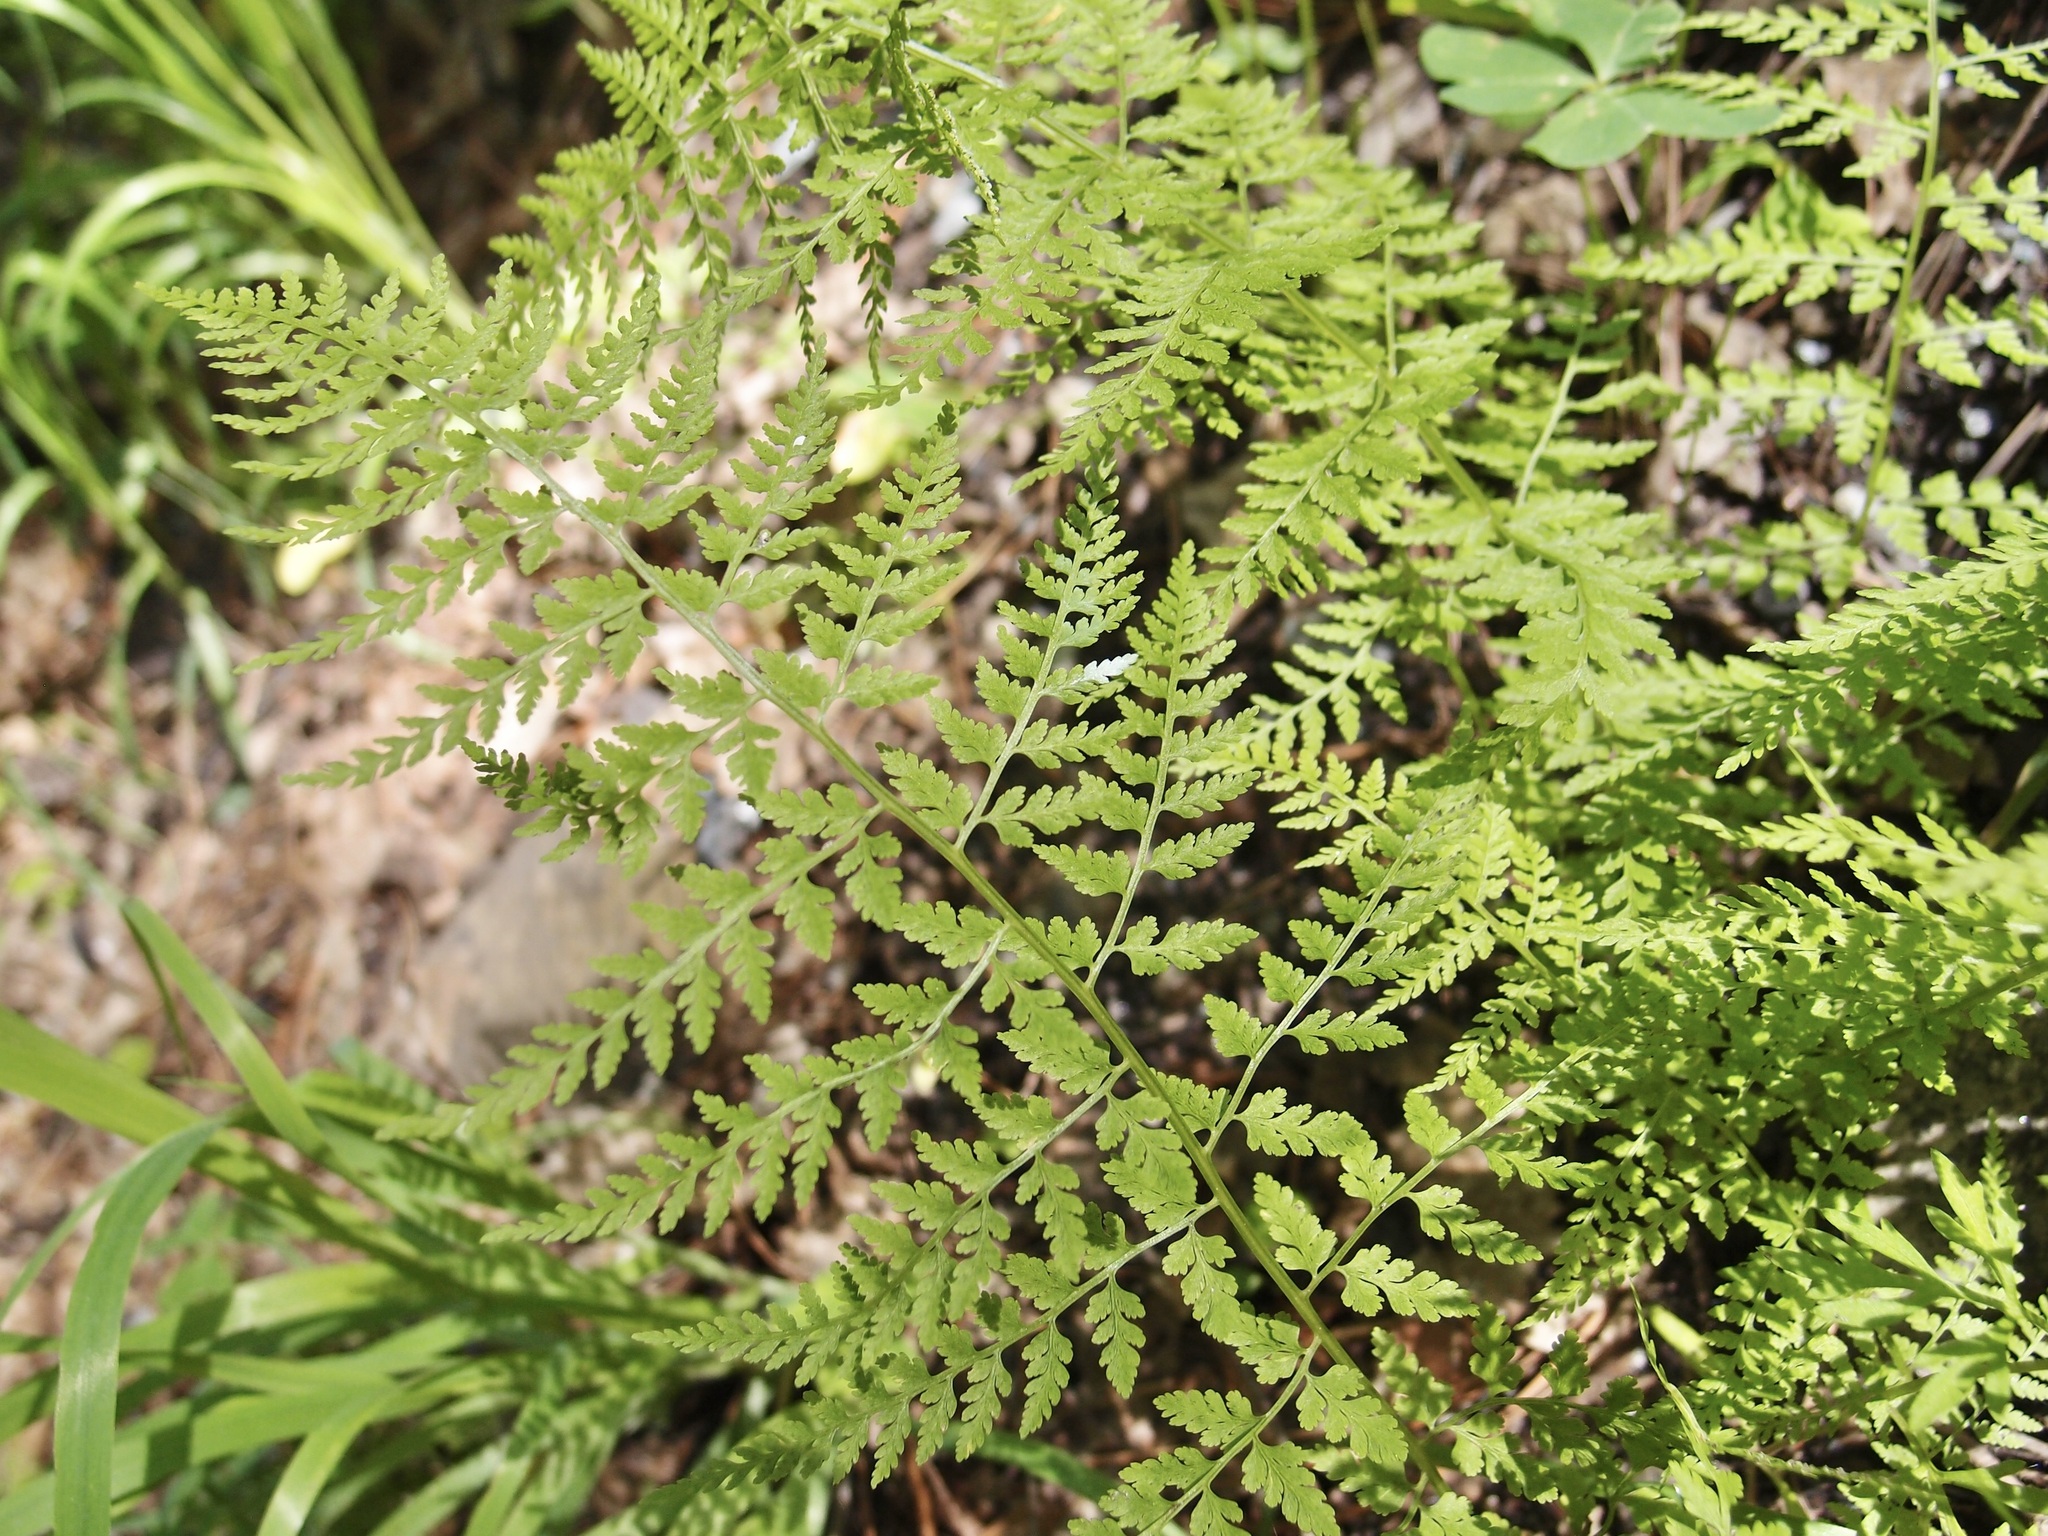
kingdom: Plantae
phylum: Tracheophyta
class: Polypodiopsida
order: Polypodiales
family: Cystopteridaceae
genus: Cystopteris
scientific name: Cystopteris reevesiana
